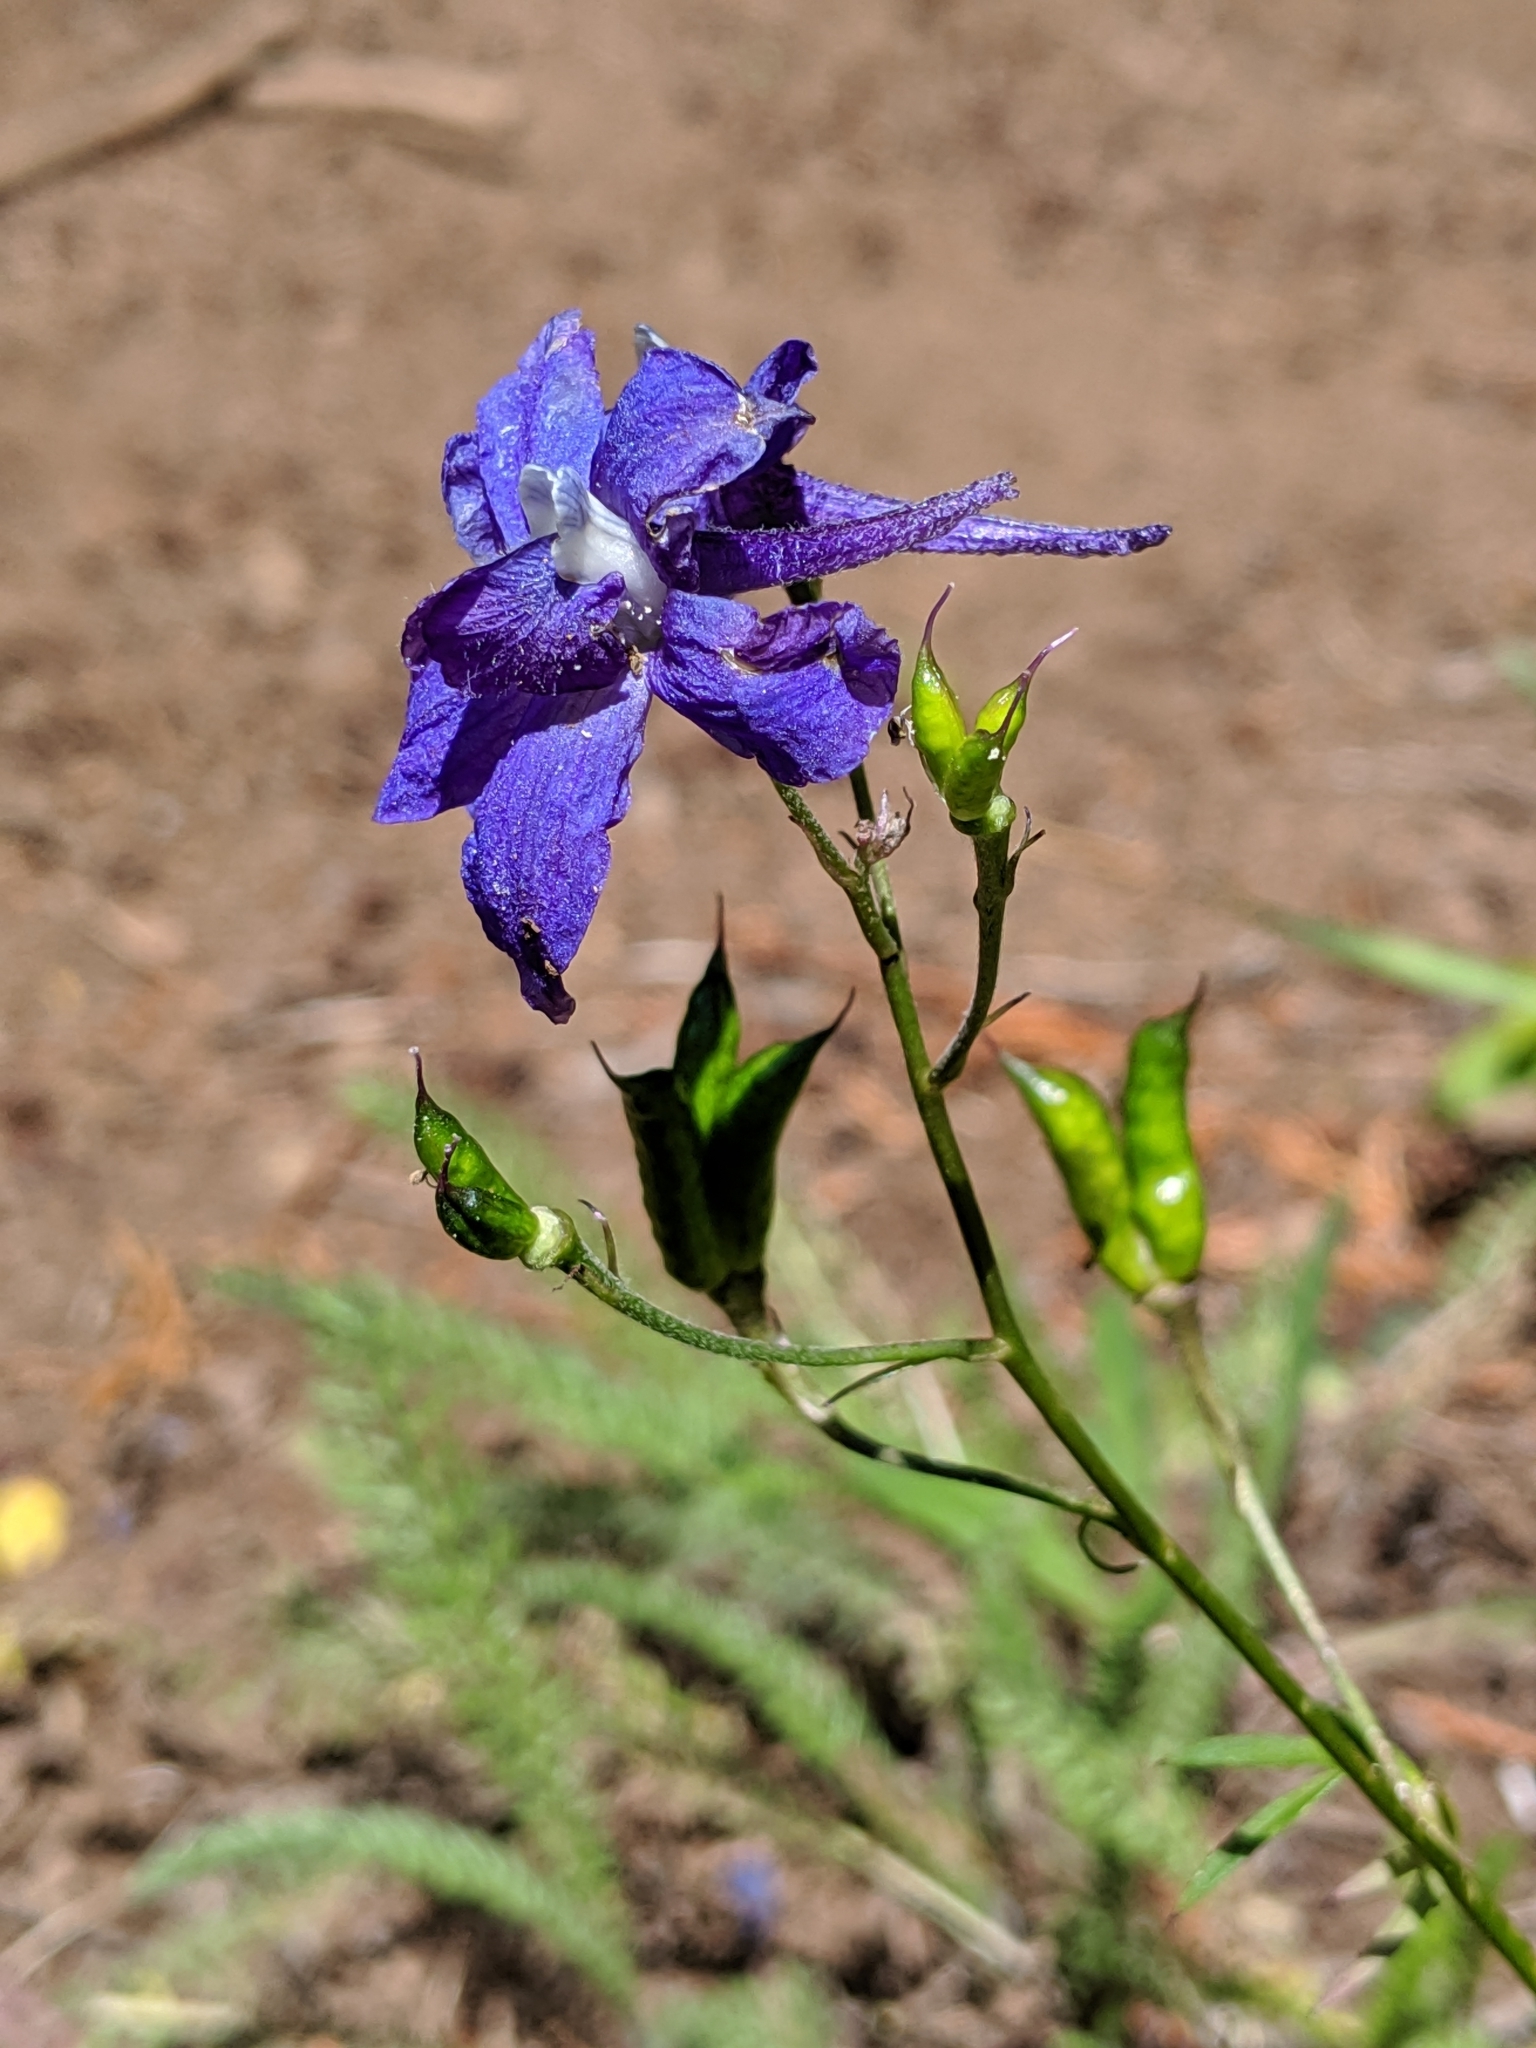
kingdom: Plantae
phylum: Tracheophyta
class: Magnoliopsida
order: Ranunculales
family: Ranunculaceae
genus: Delphinium
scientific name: Delphinium glareosum
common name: Olympic mountain larkspur
